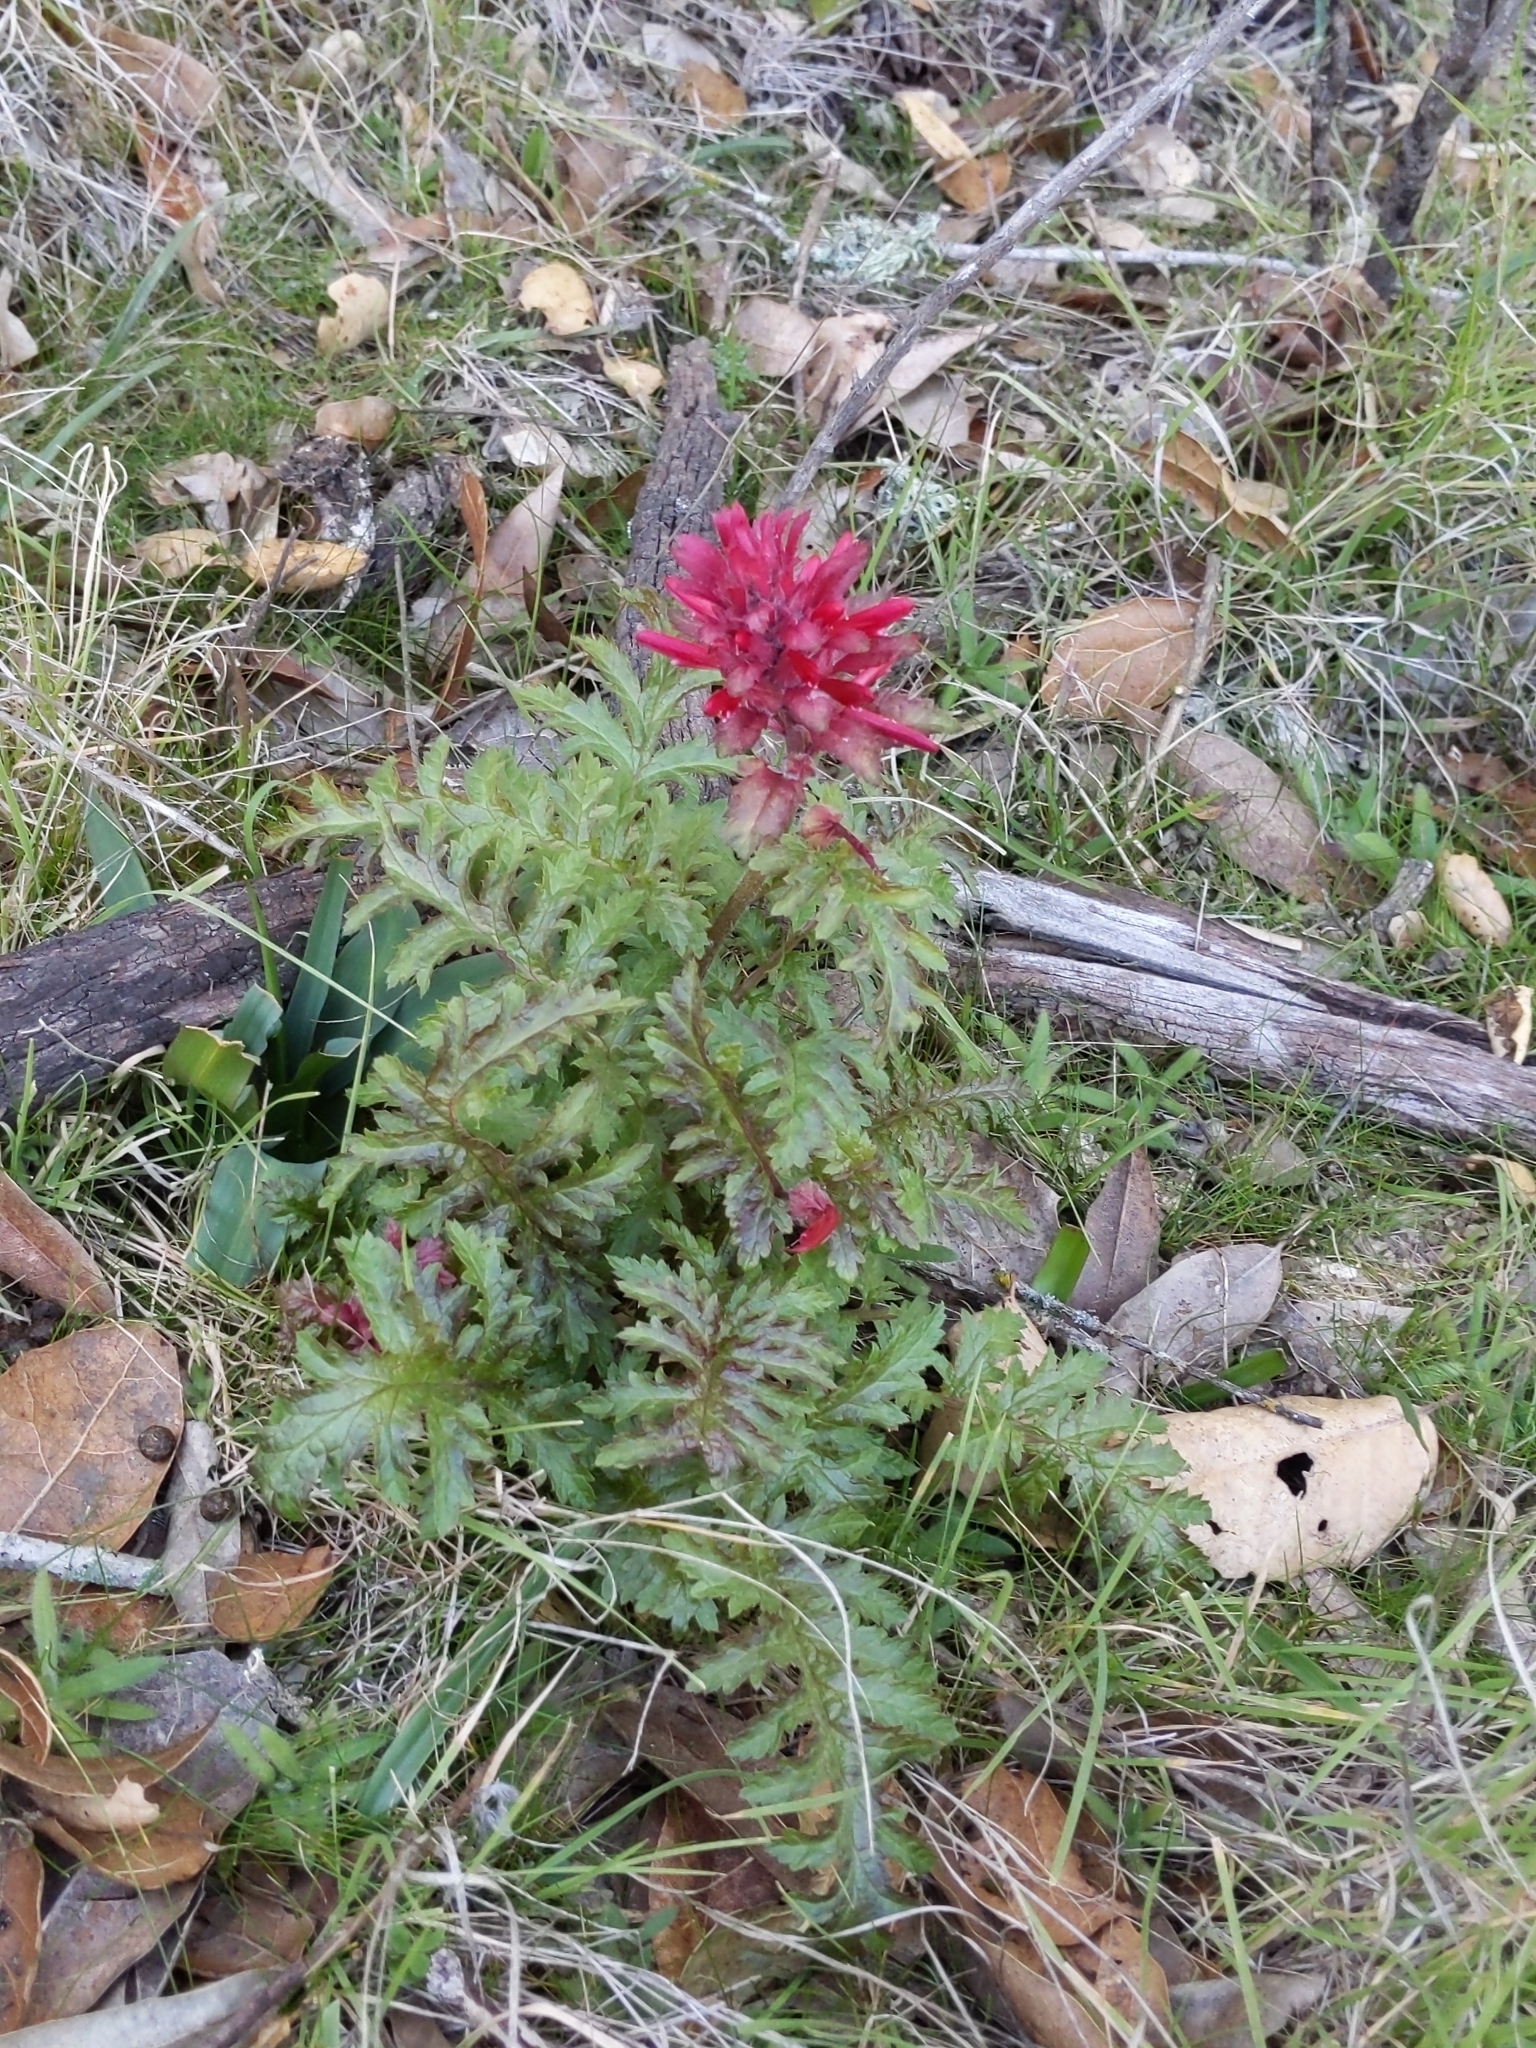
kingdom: Plantae
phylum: Tracheophyta
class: Magnoliopsida
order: Lamiales
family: Orobanchaceae
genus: Pedicularis
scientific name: Pedicularis densiflora
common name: Indian warrior
